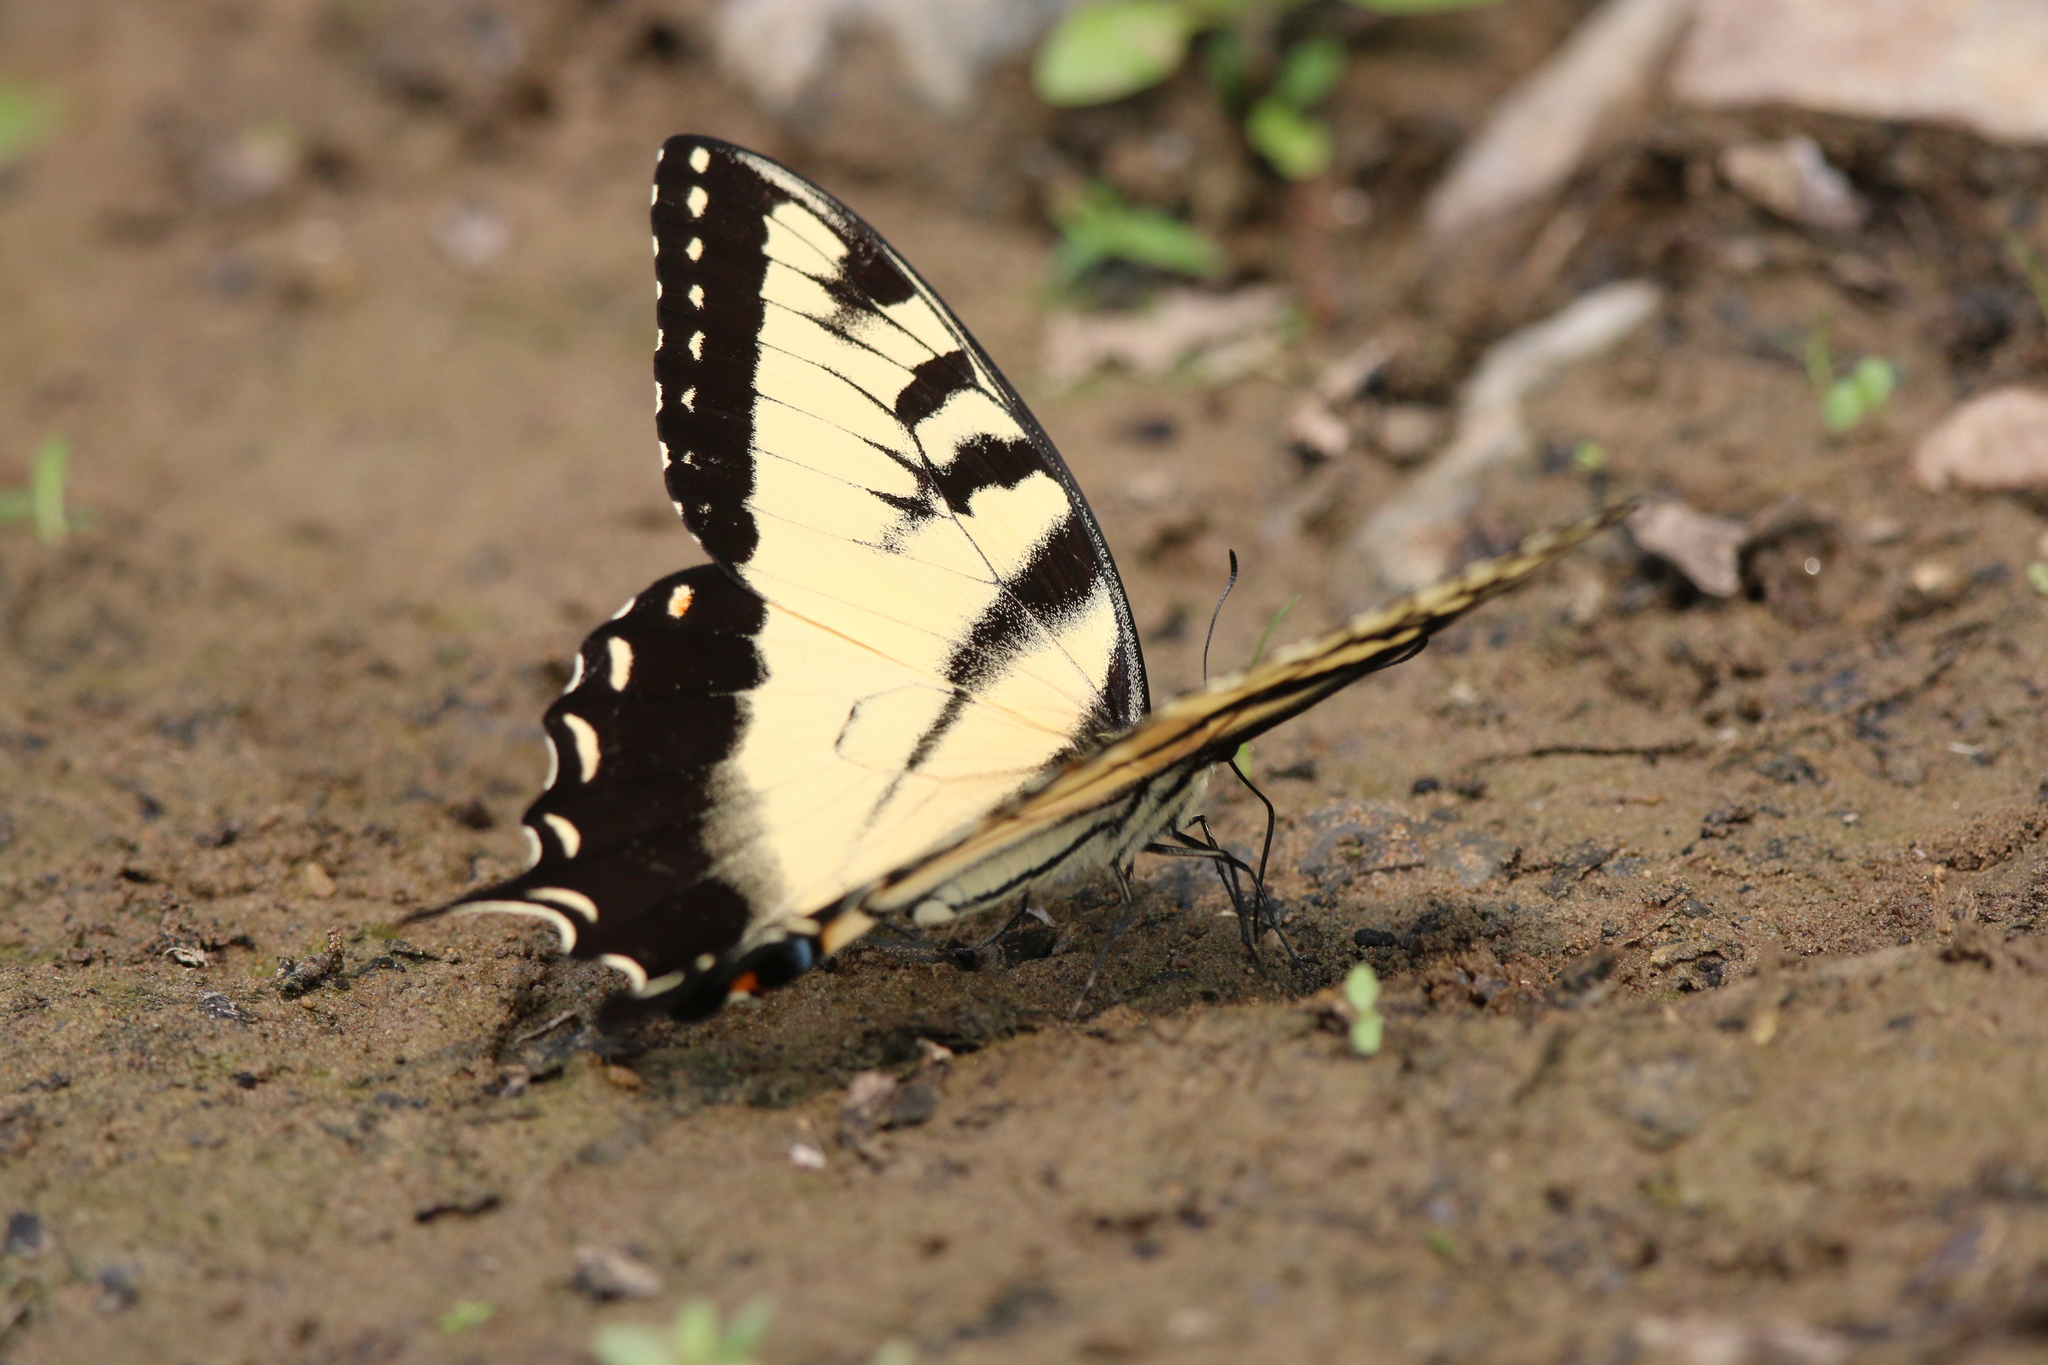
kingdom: Animalia
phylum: Arthropoda
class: Insecta
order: Lepidoptera
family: Papilionidae
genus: Papilio
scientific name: Papilio glaucus
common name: Tiger swallowtail
